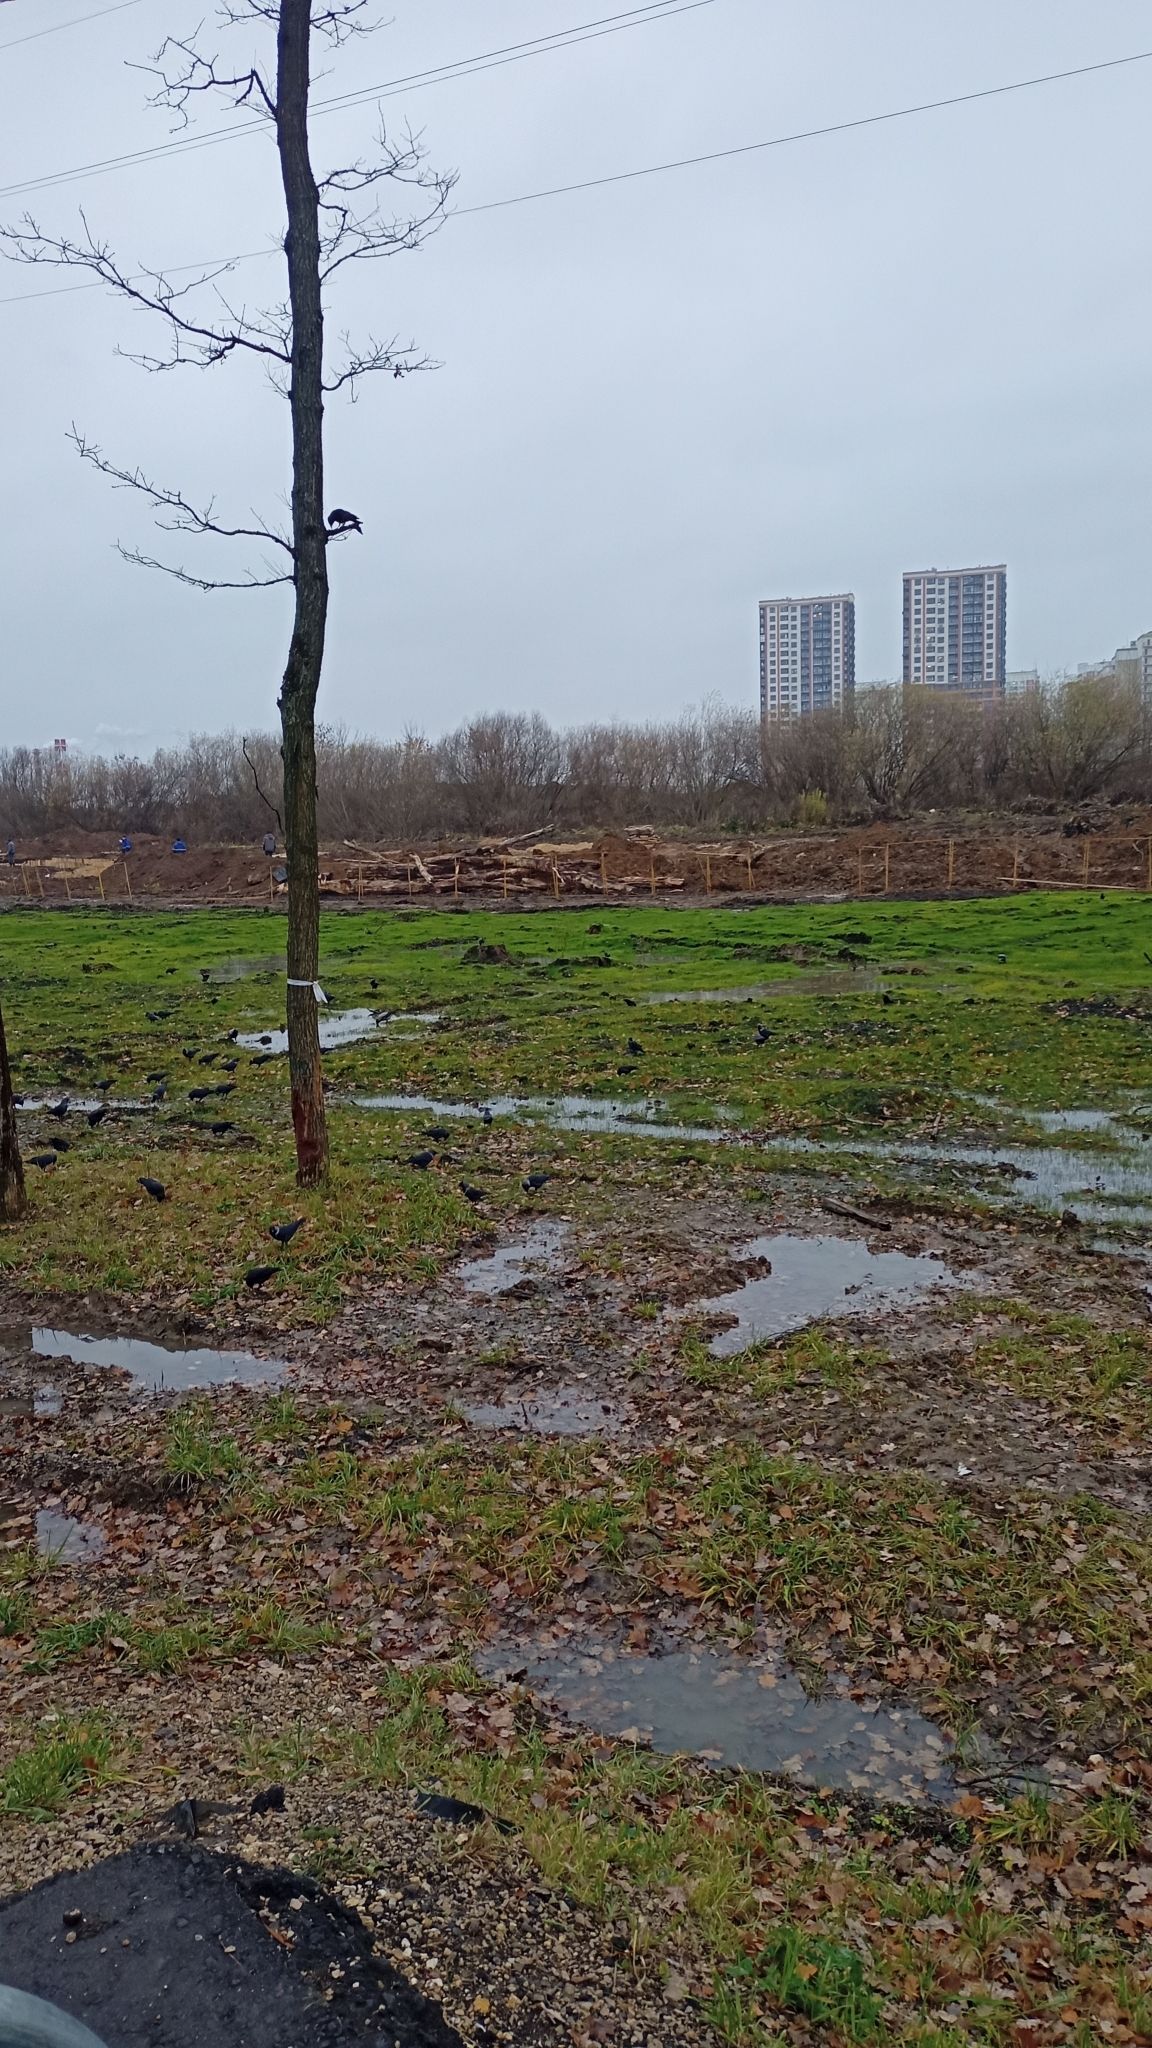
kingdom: Animalia
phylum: Chordata
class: Aves
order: Passeriformes
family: Corvidae
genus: Coloeus
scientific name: Coloeus monedula
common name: Western jackdaw
